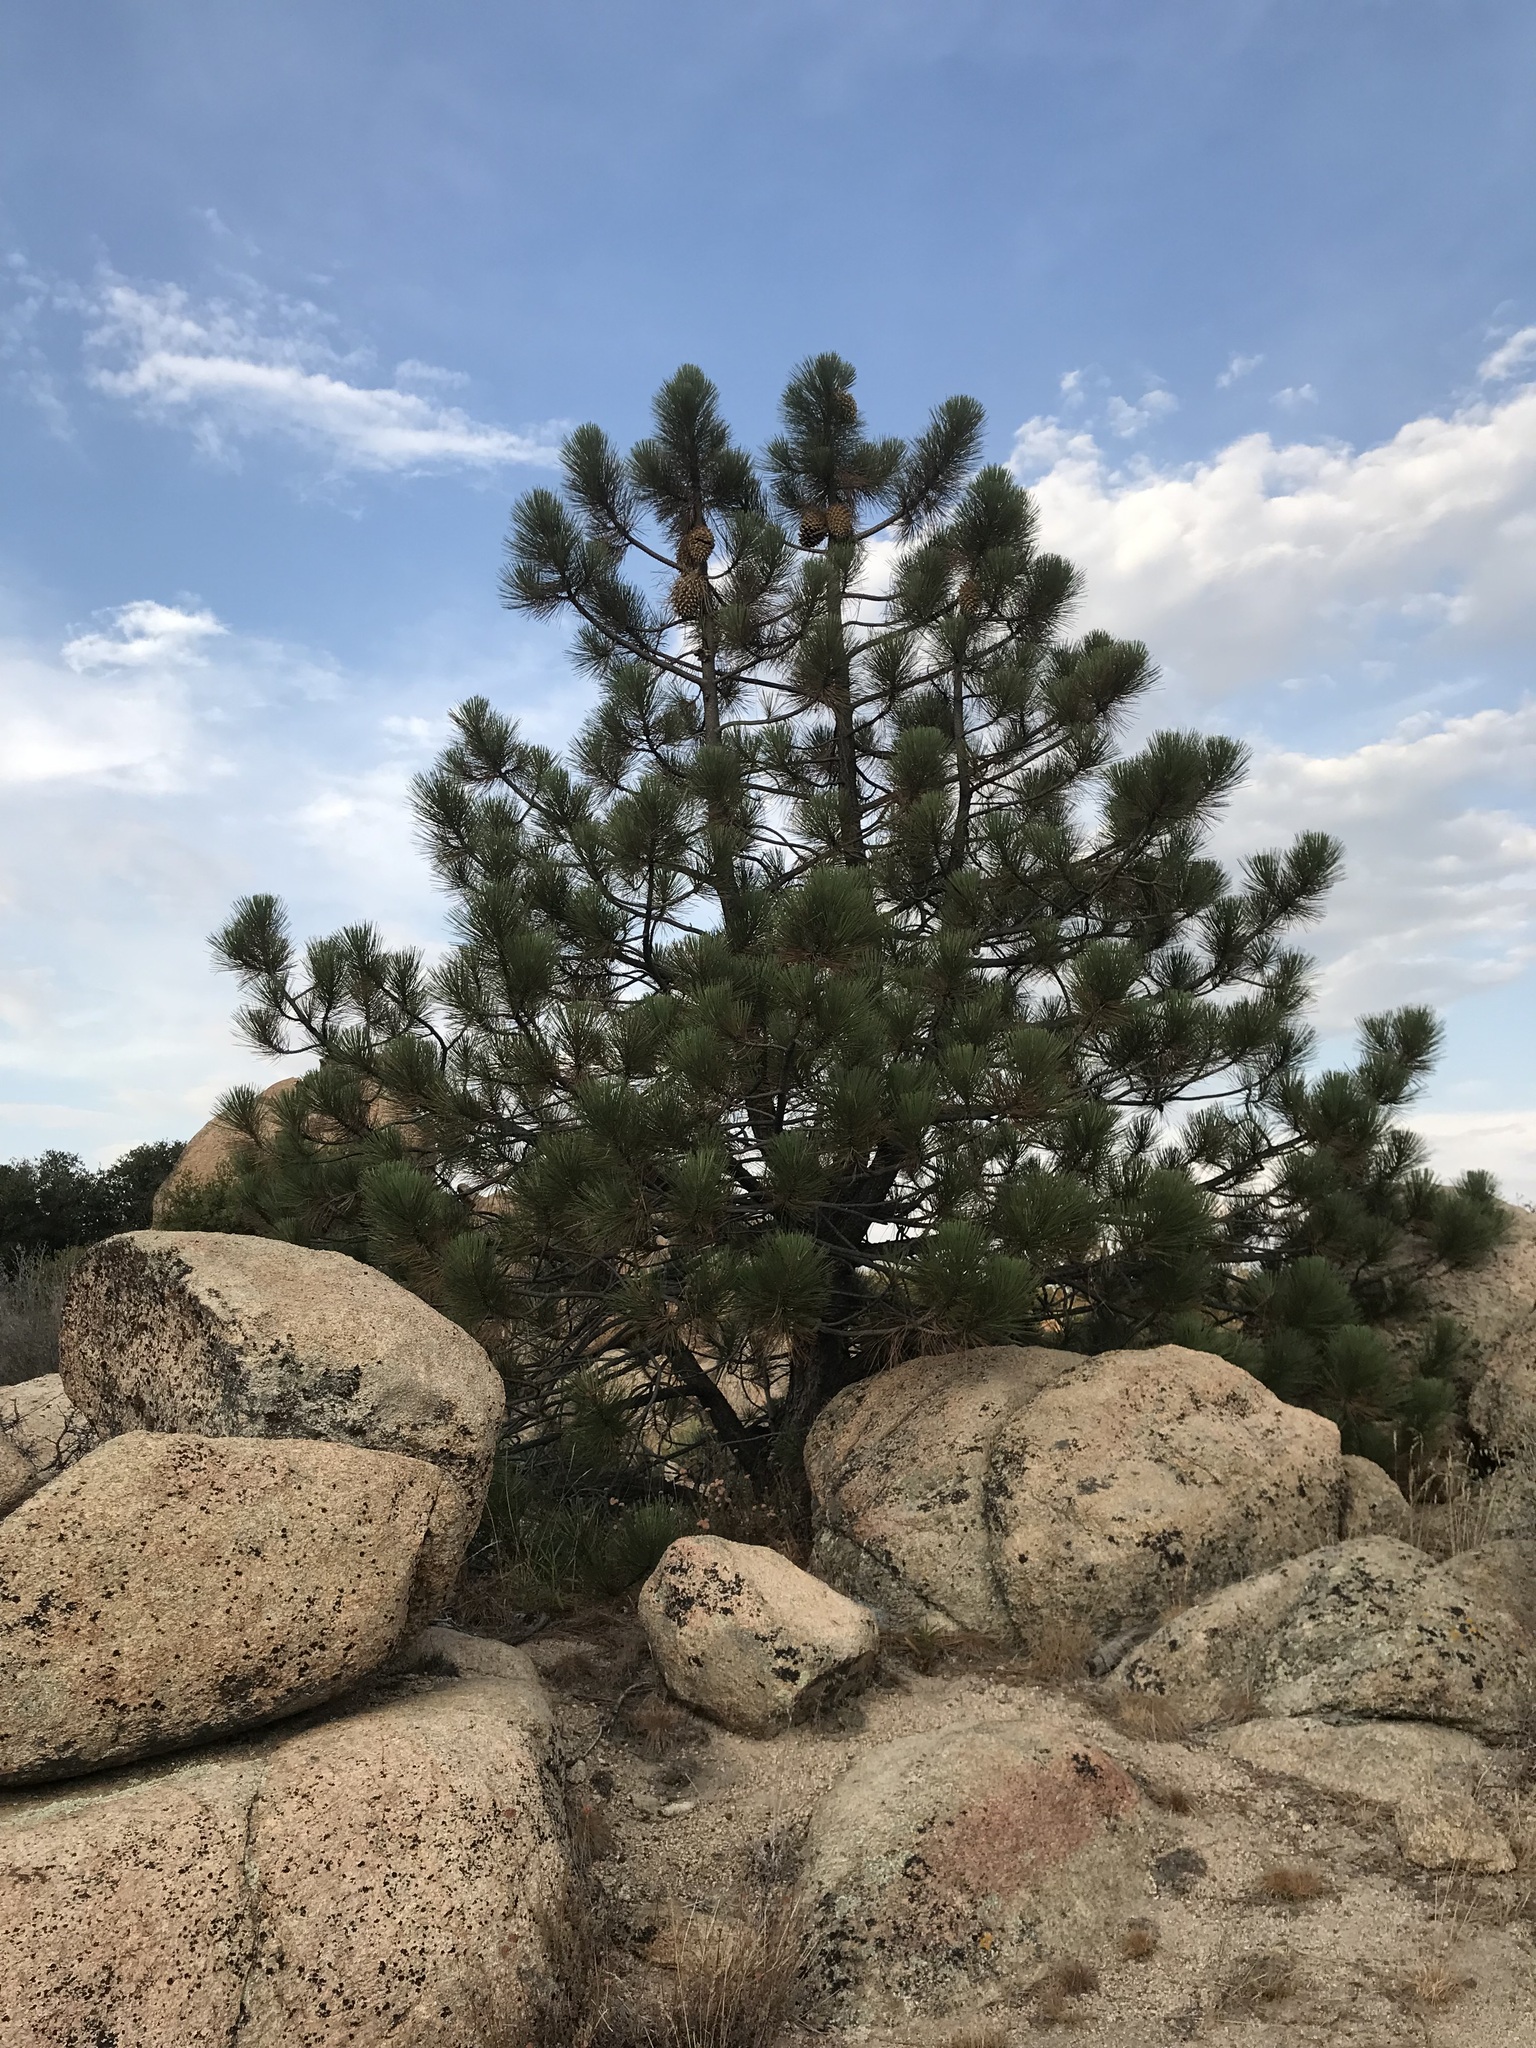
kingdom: Plantae
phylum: Tracheophyta
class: Pinopsida
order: Pinales
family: Pinaceae
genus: Pinus
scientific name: Pinus coulteri
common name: Coulter pine
